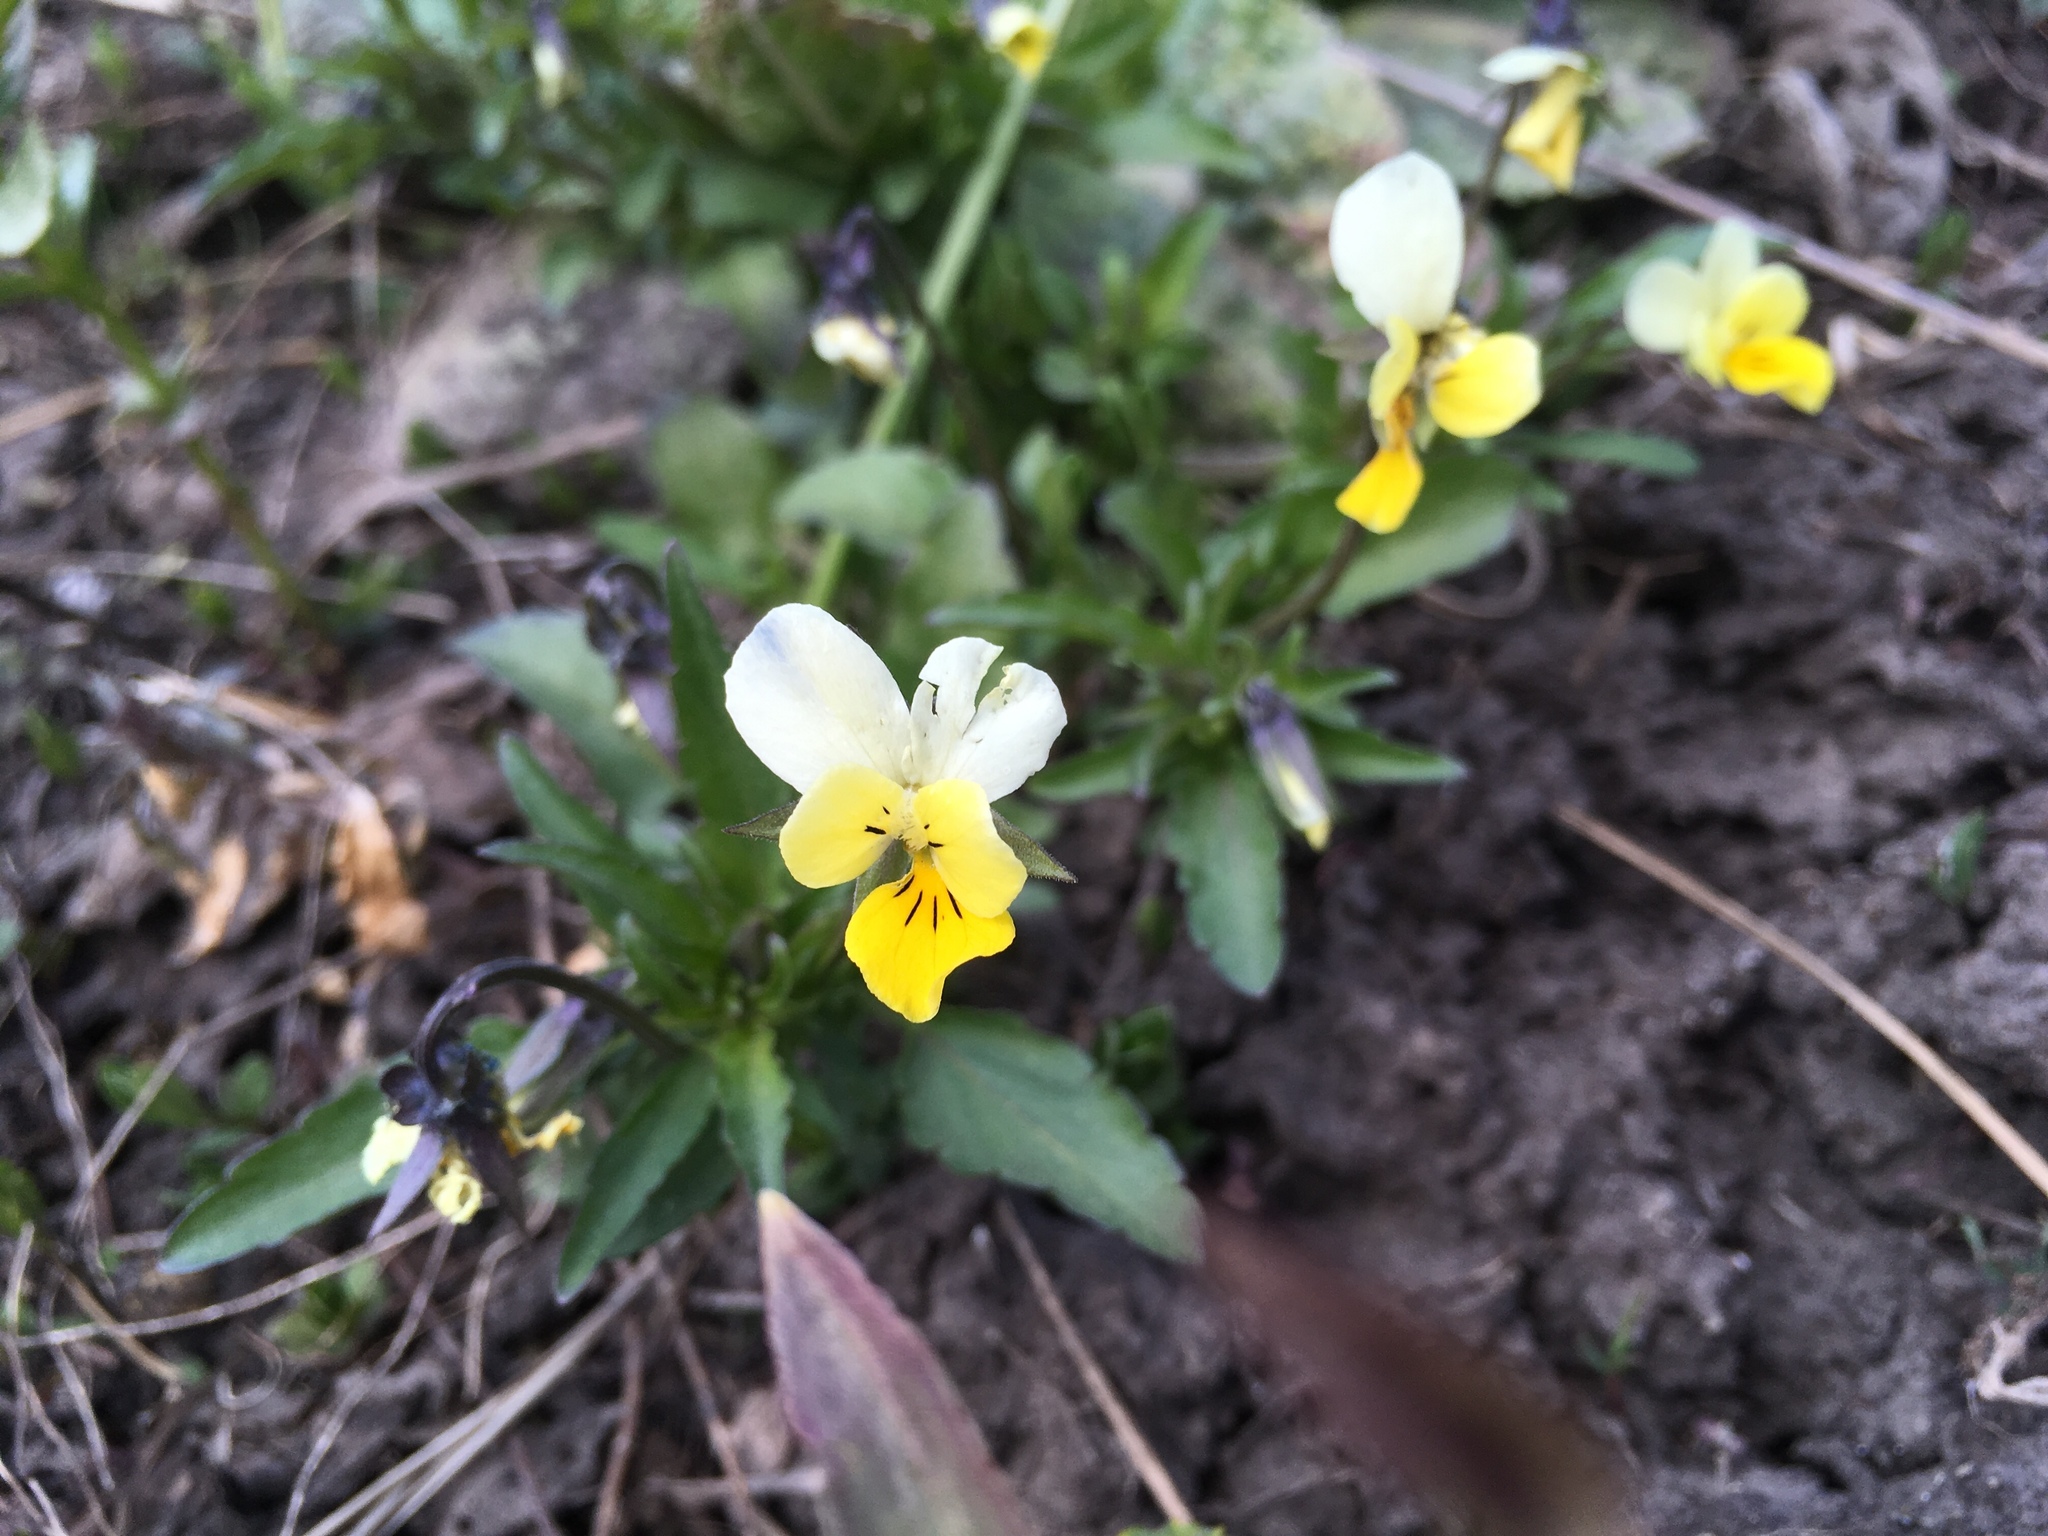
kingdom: Plantae
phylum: Tracheophyta
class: Magnoliopsida
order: Malpighiales
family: Violaceae
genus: Viola
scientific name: Viola arvensis
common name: Field pansy
